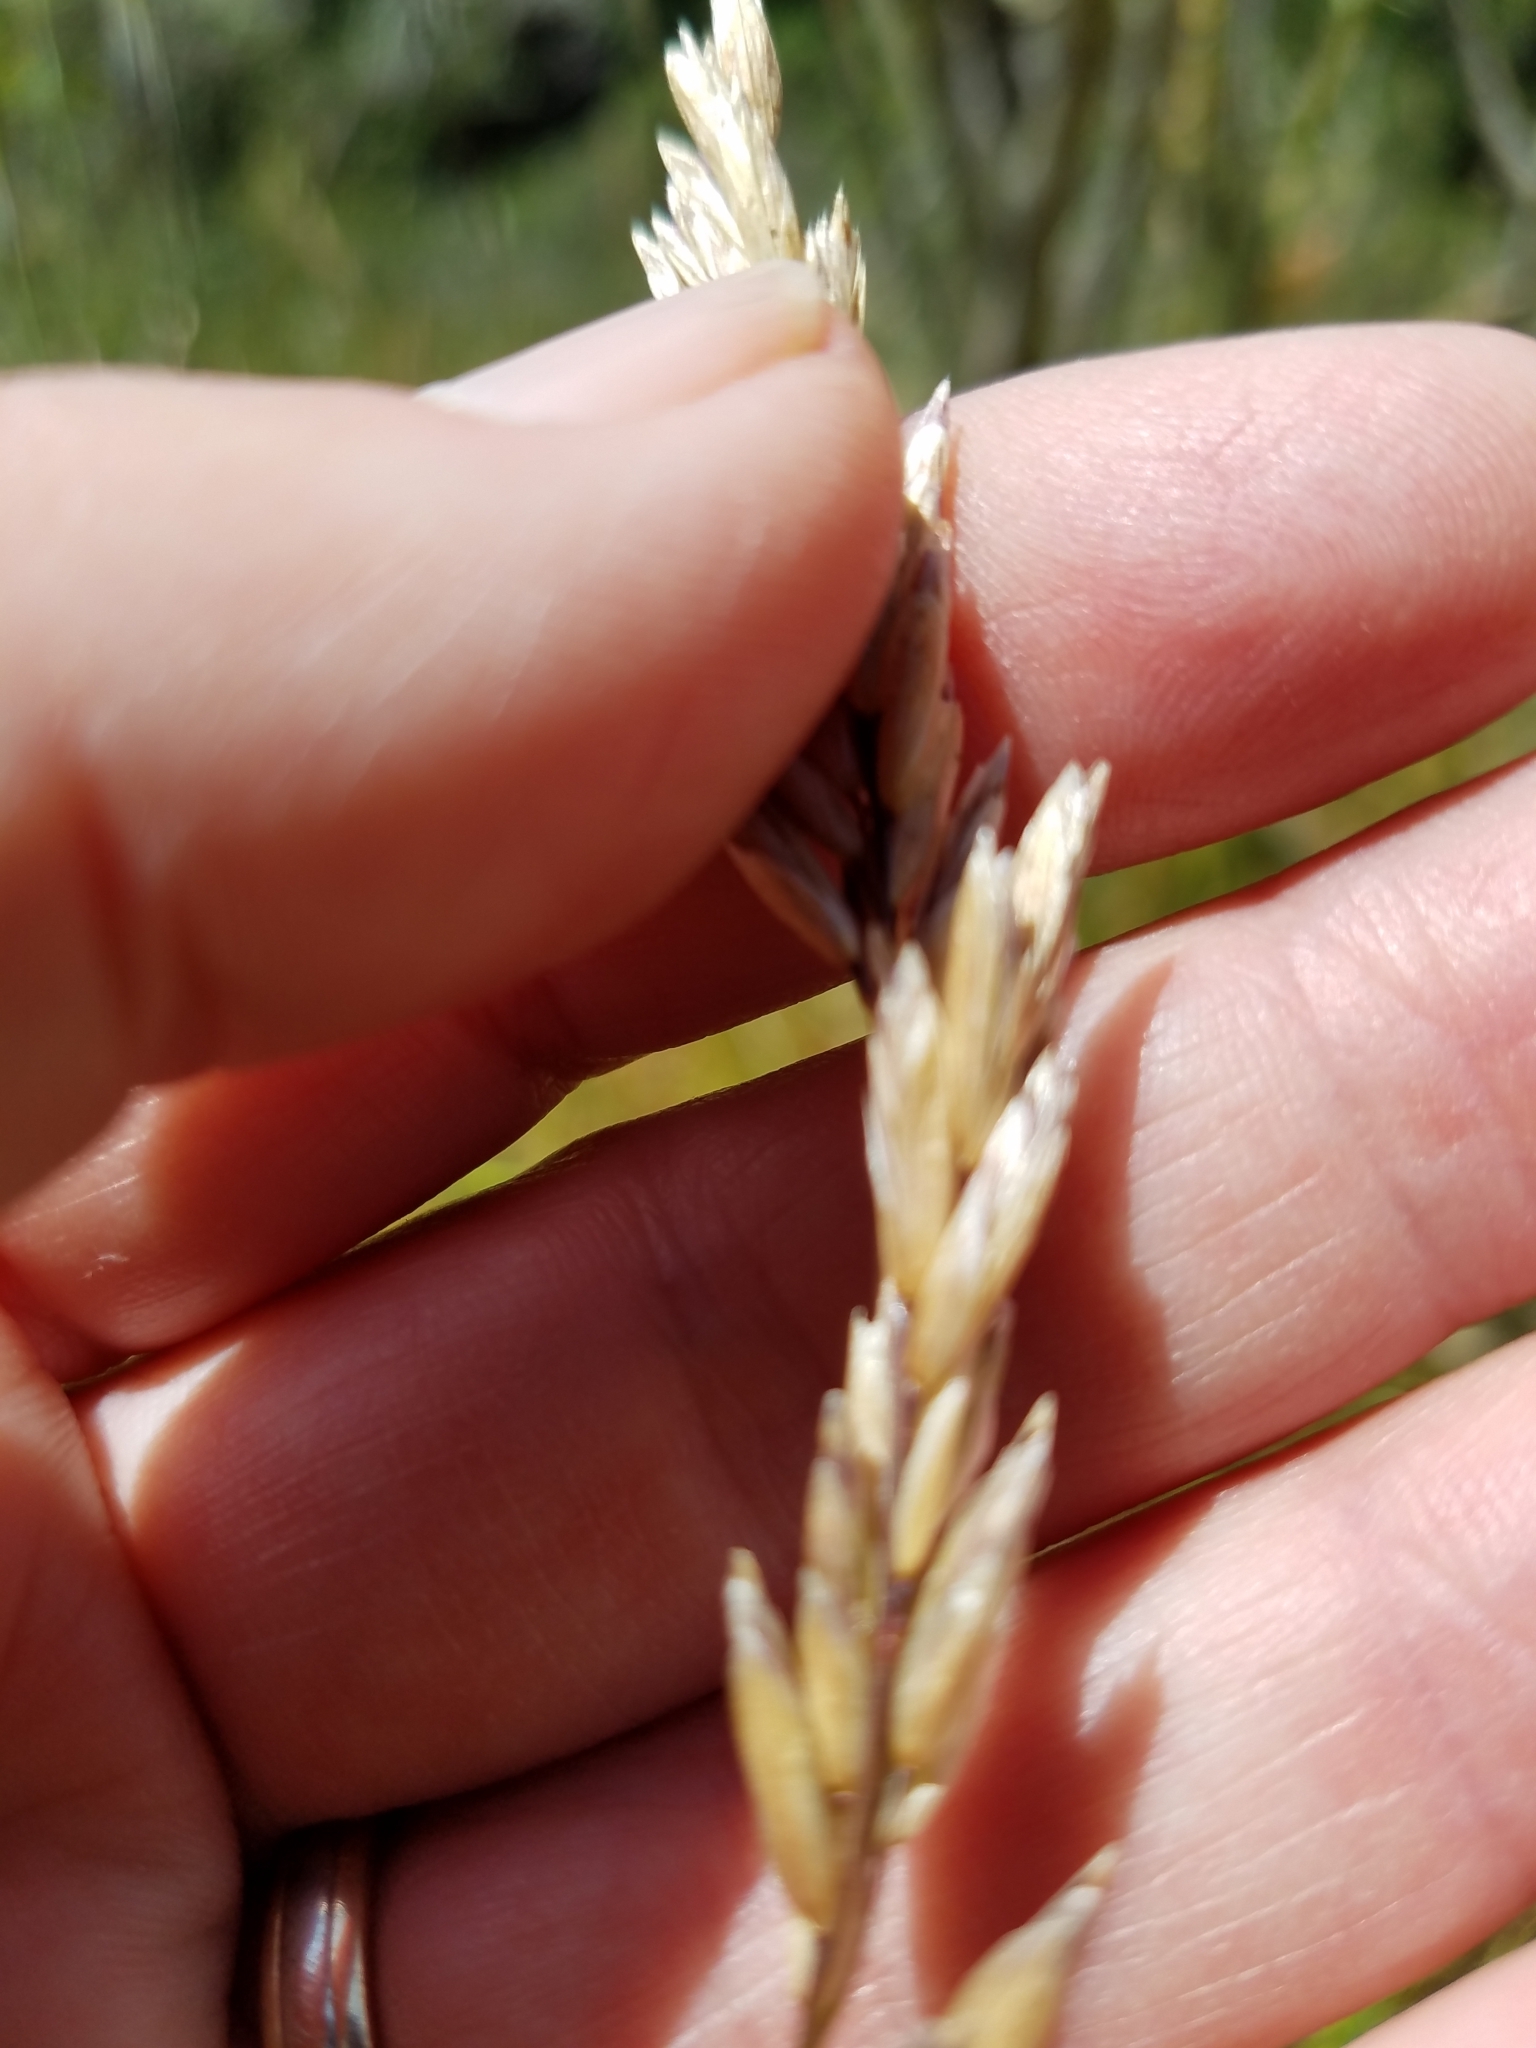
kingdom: Plantae
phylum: Tracheophyta
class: Liliopsida
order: Poales
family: Poaceae
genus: Melica
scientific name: Melica californica
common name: California melic
